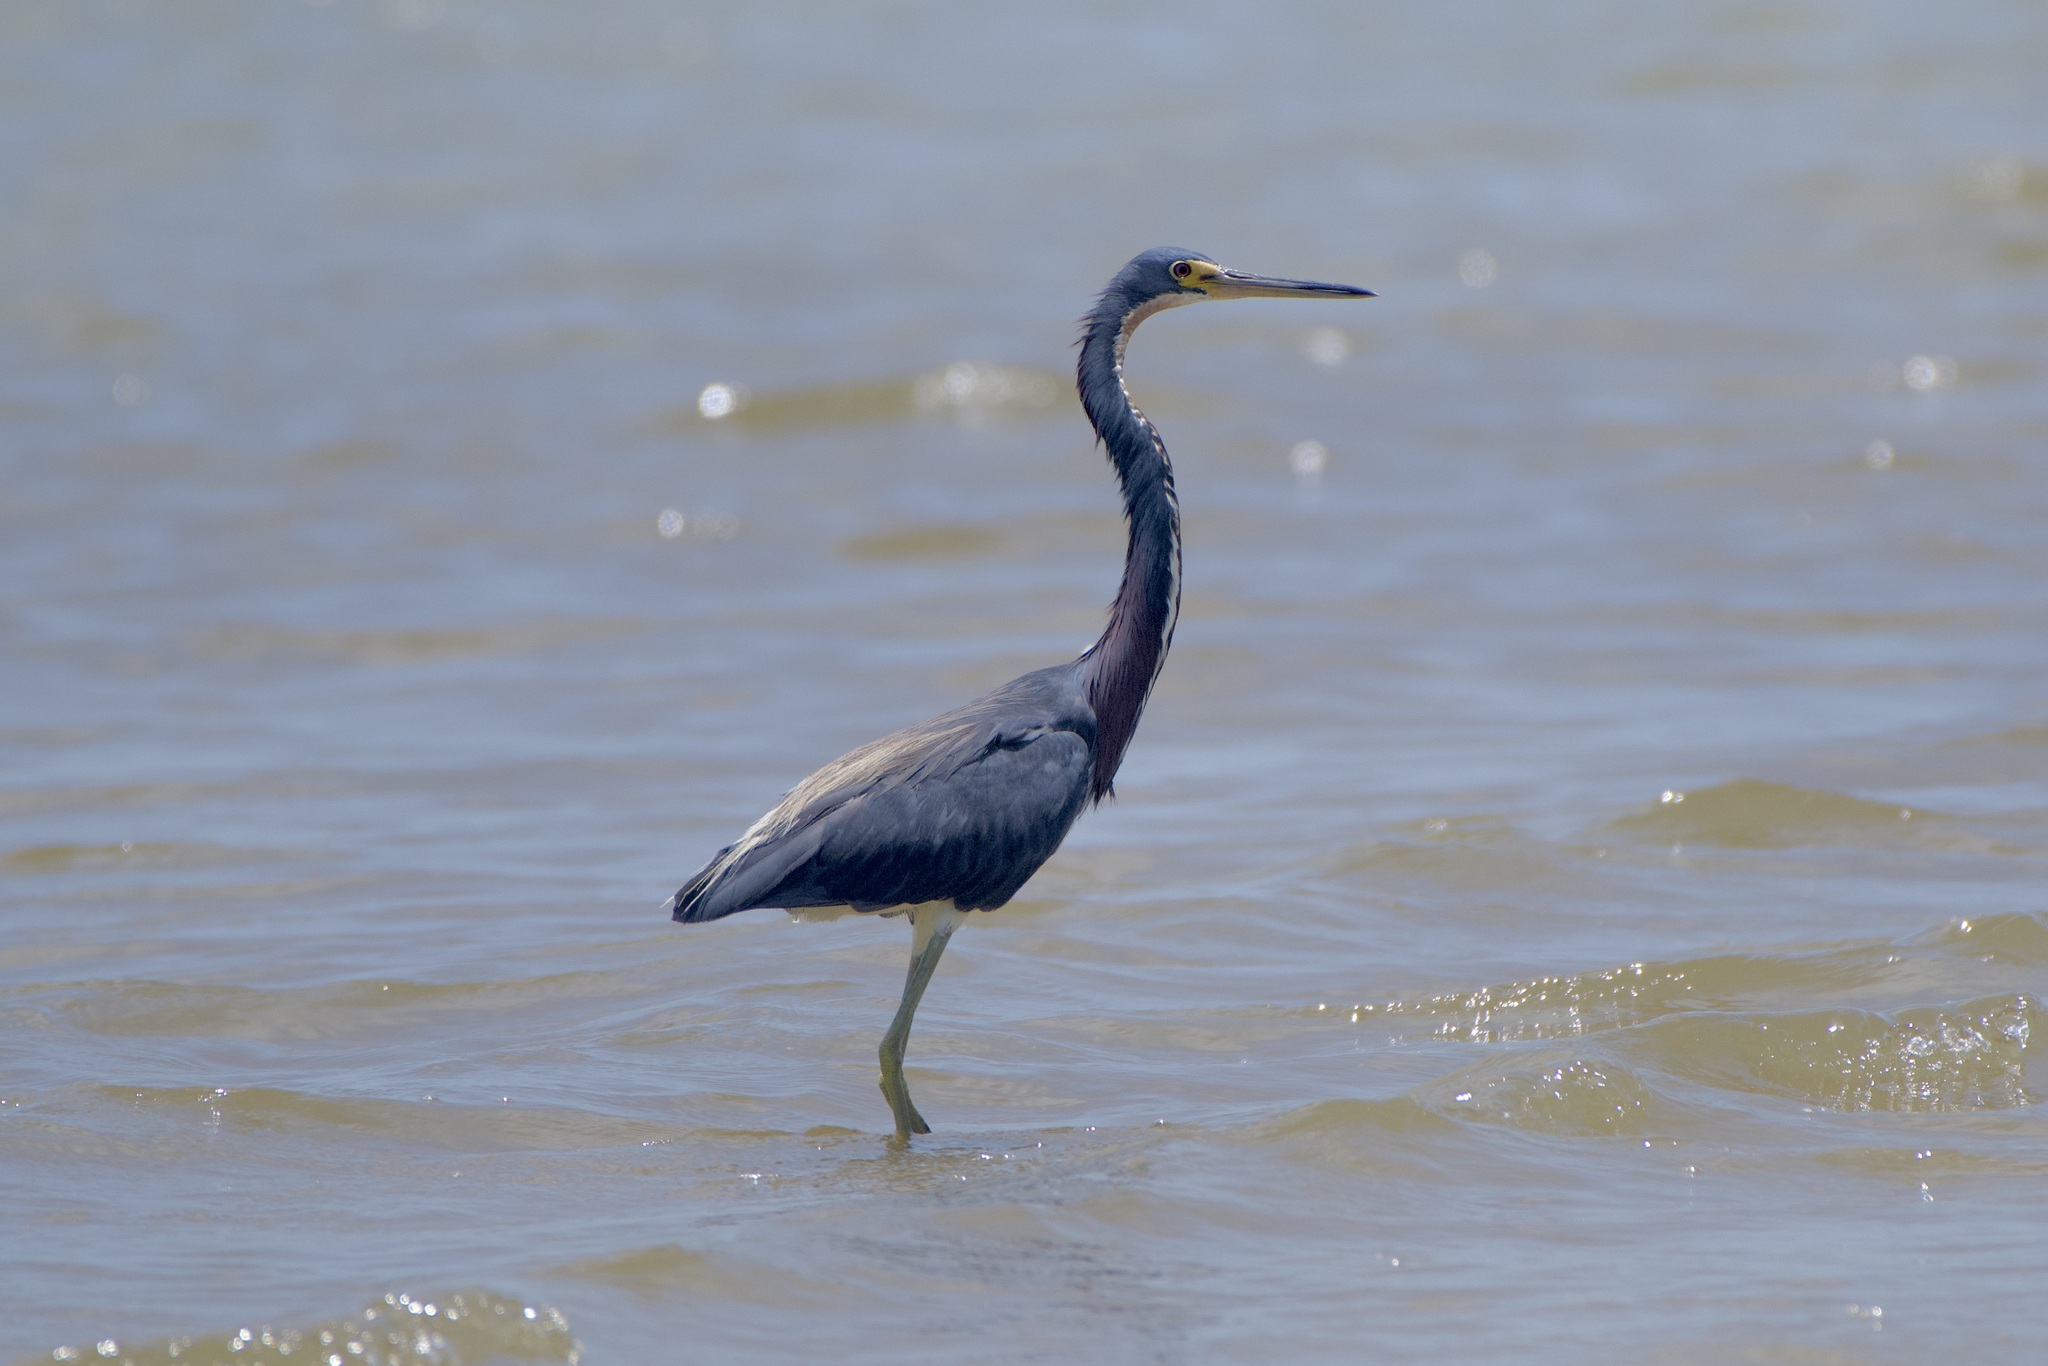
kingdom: Animalia
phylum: Chordata
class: Aves
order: Pelecaniformes
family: Ardeidae
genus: Egretta
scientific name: Egretta tricolor
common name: Tricolored heron
